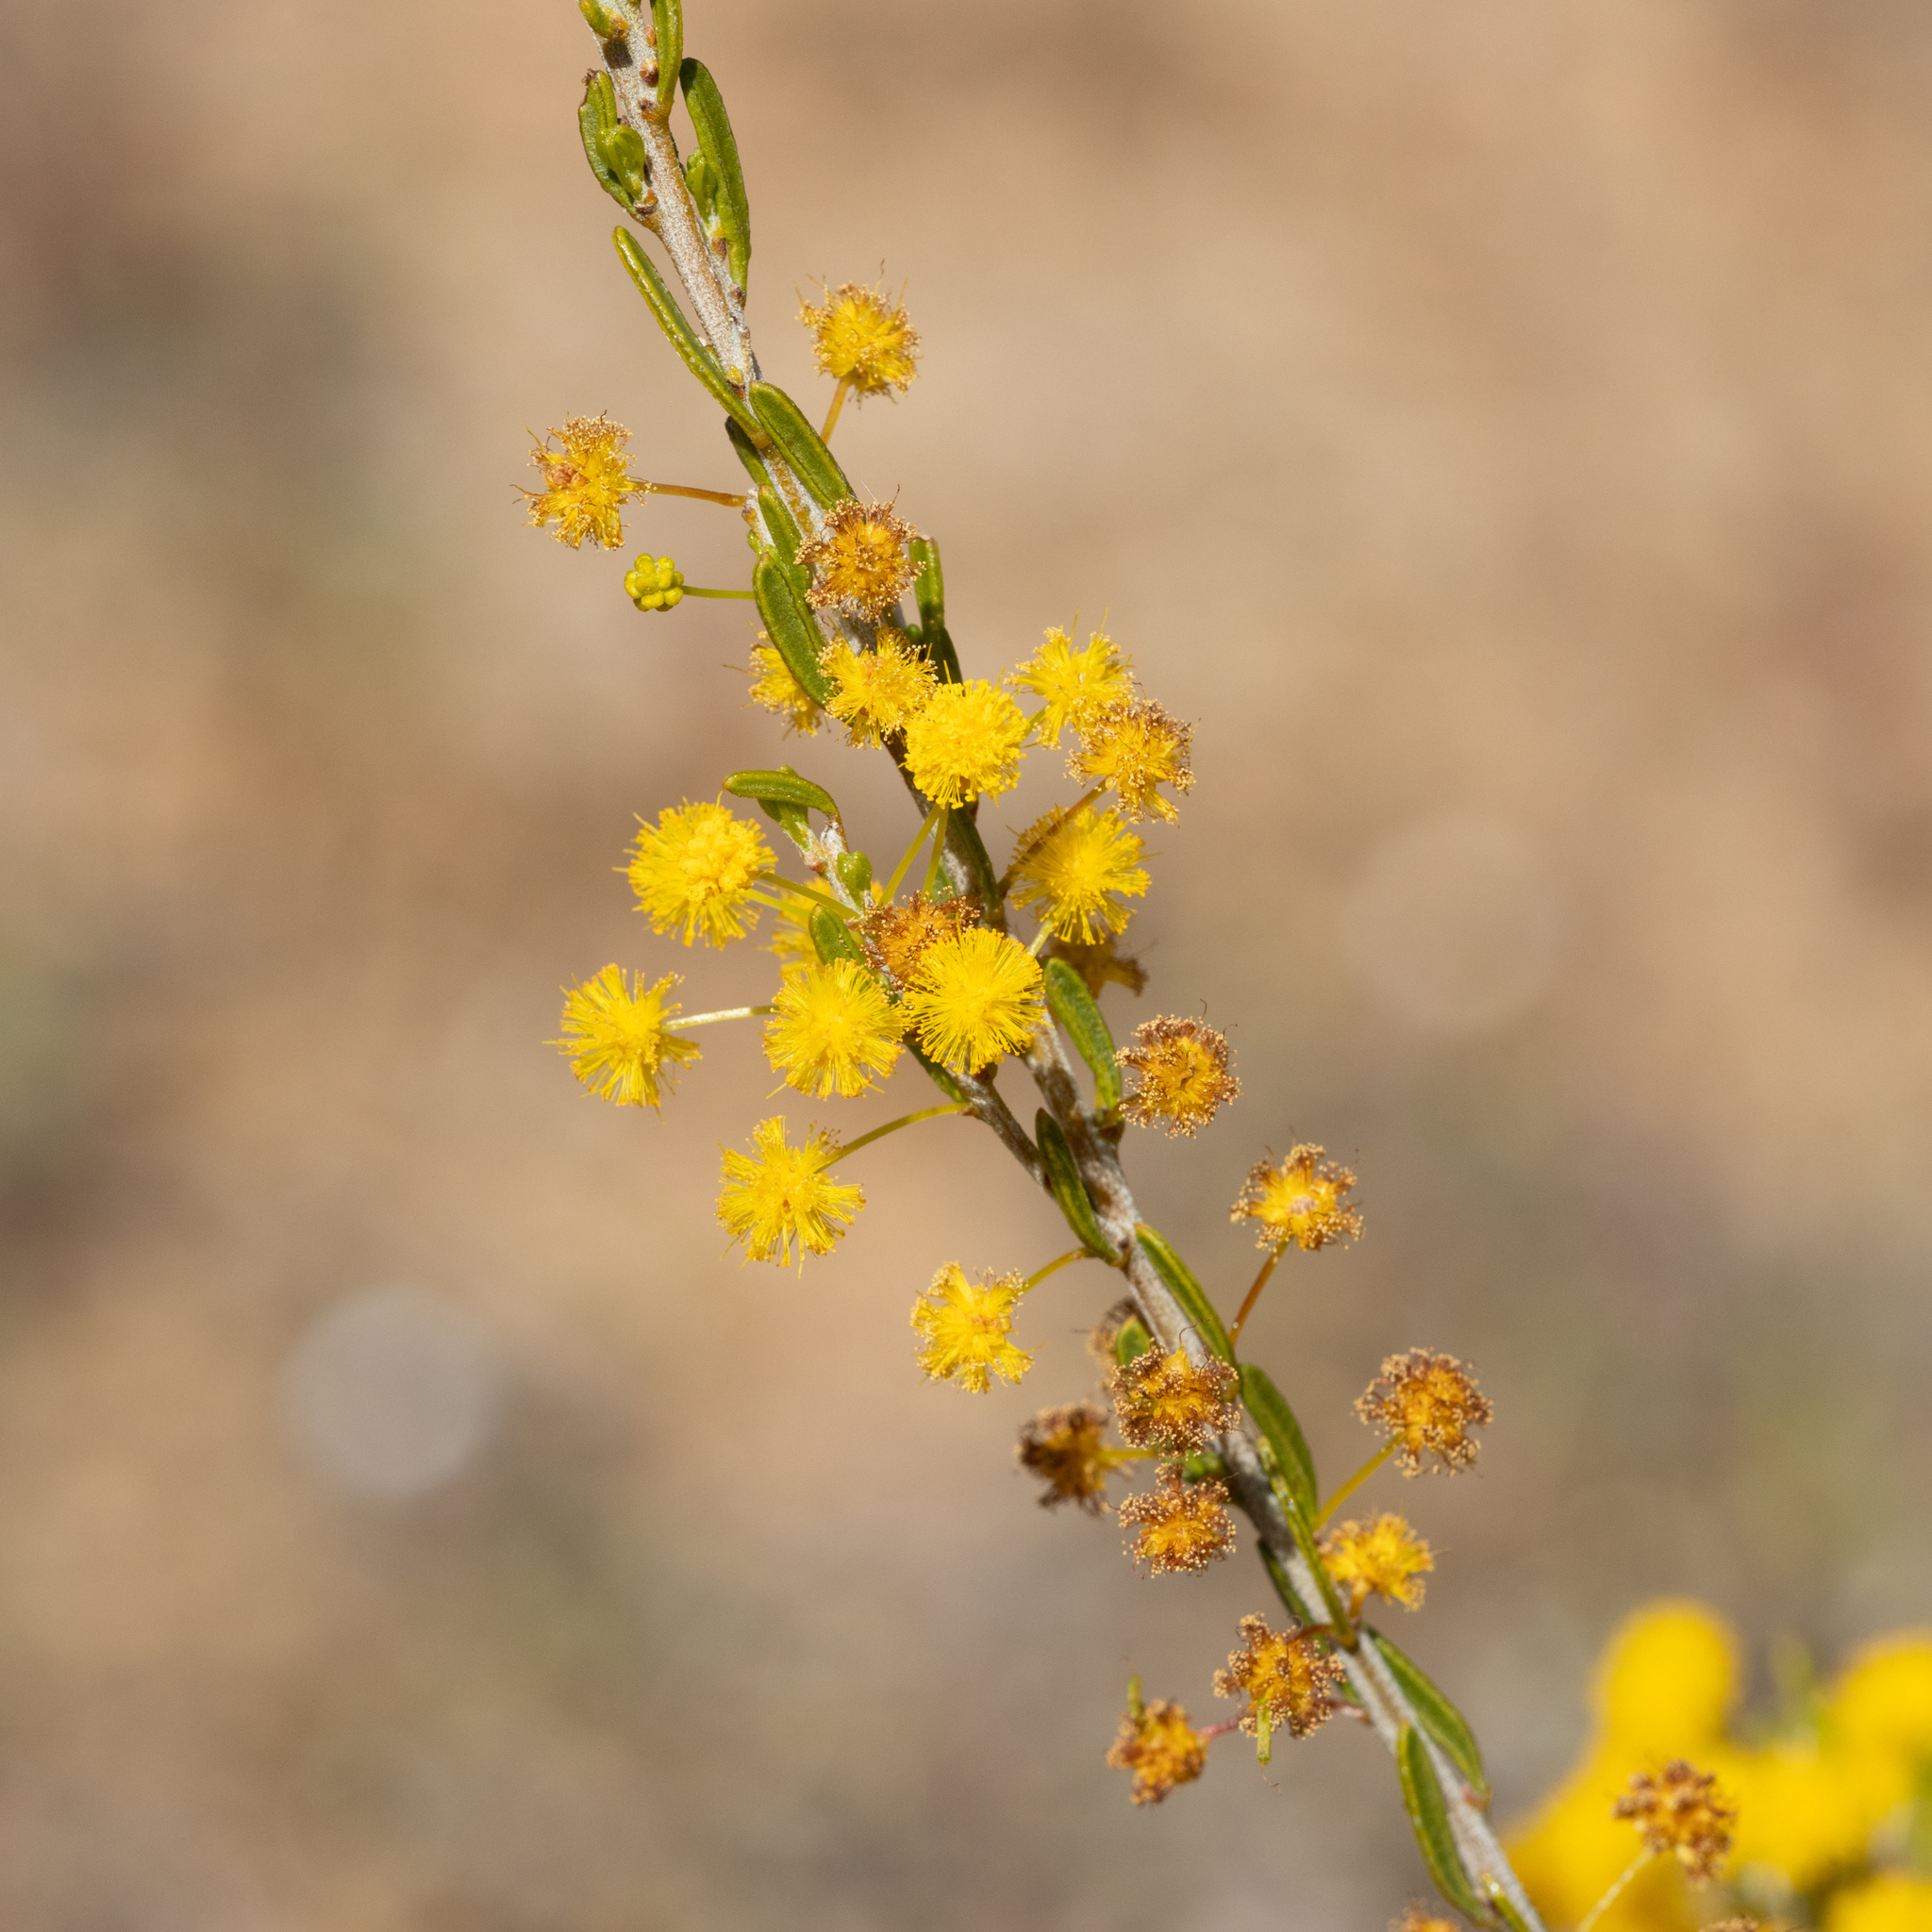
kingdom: Plantae
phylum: Tracheophyta
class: Magnoliopsida
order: Fabales
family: Fabaceae
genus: Acacia
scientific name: Acacia lineata
